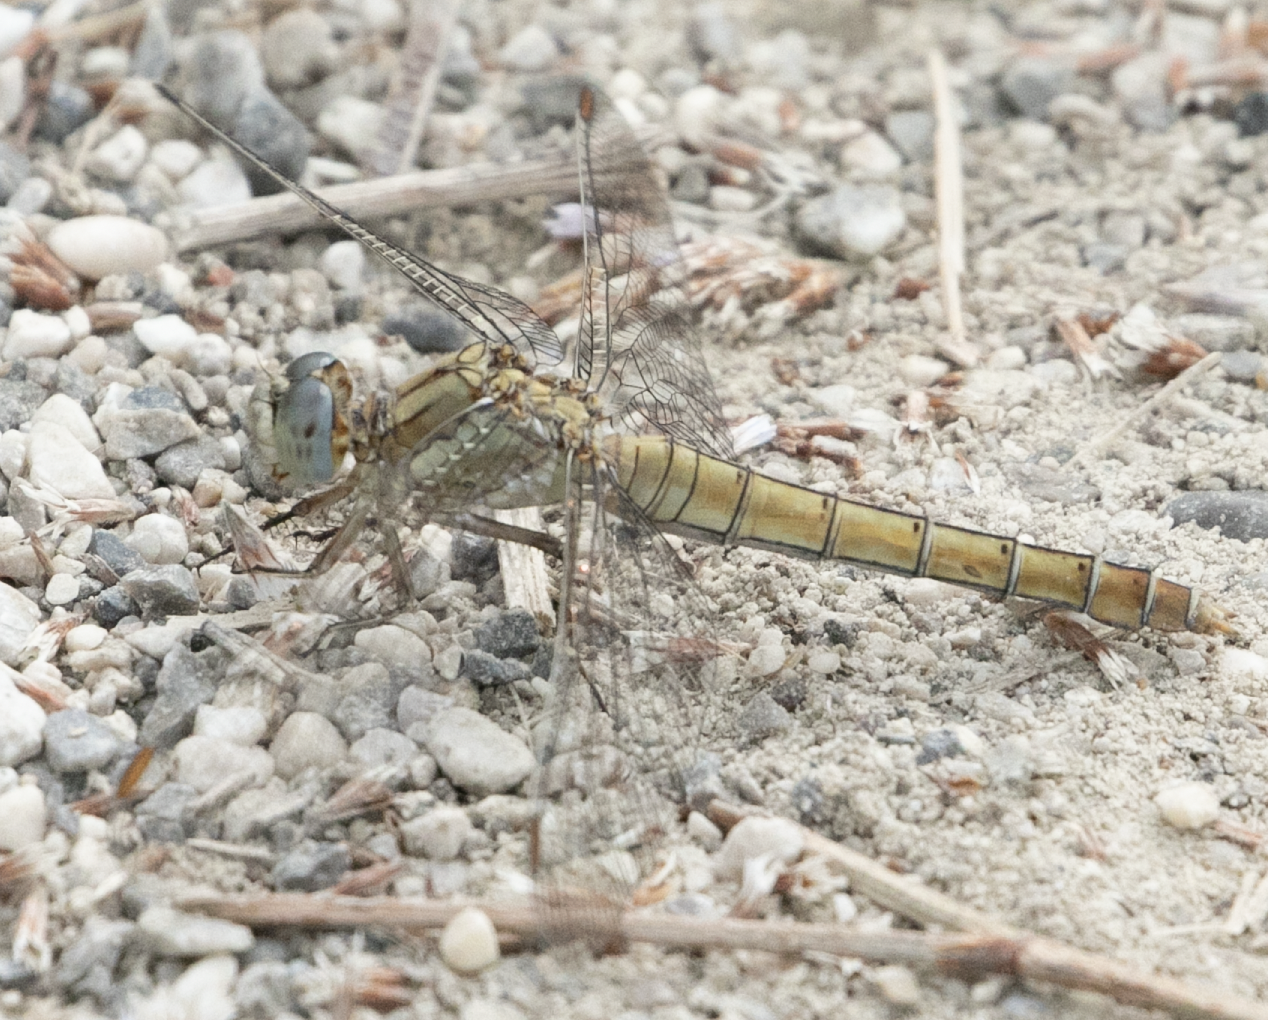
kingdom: Animalia
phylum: Arthropoda
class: Insecta
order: Odonata
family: Libellulidae
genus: Orthetrum
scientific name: Orthetrum brunneum
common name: Southern skimmer
